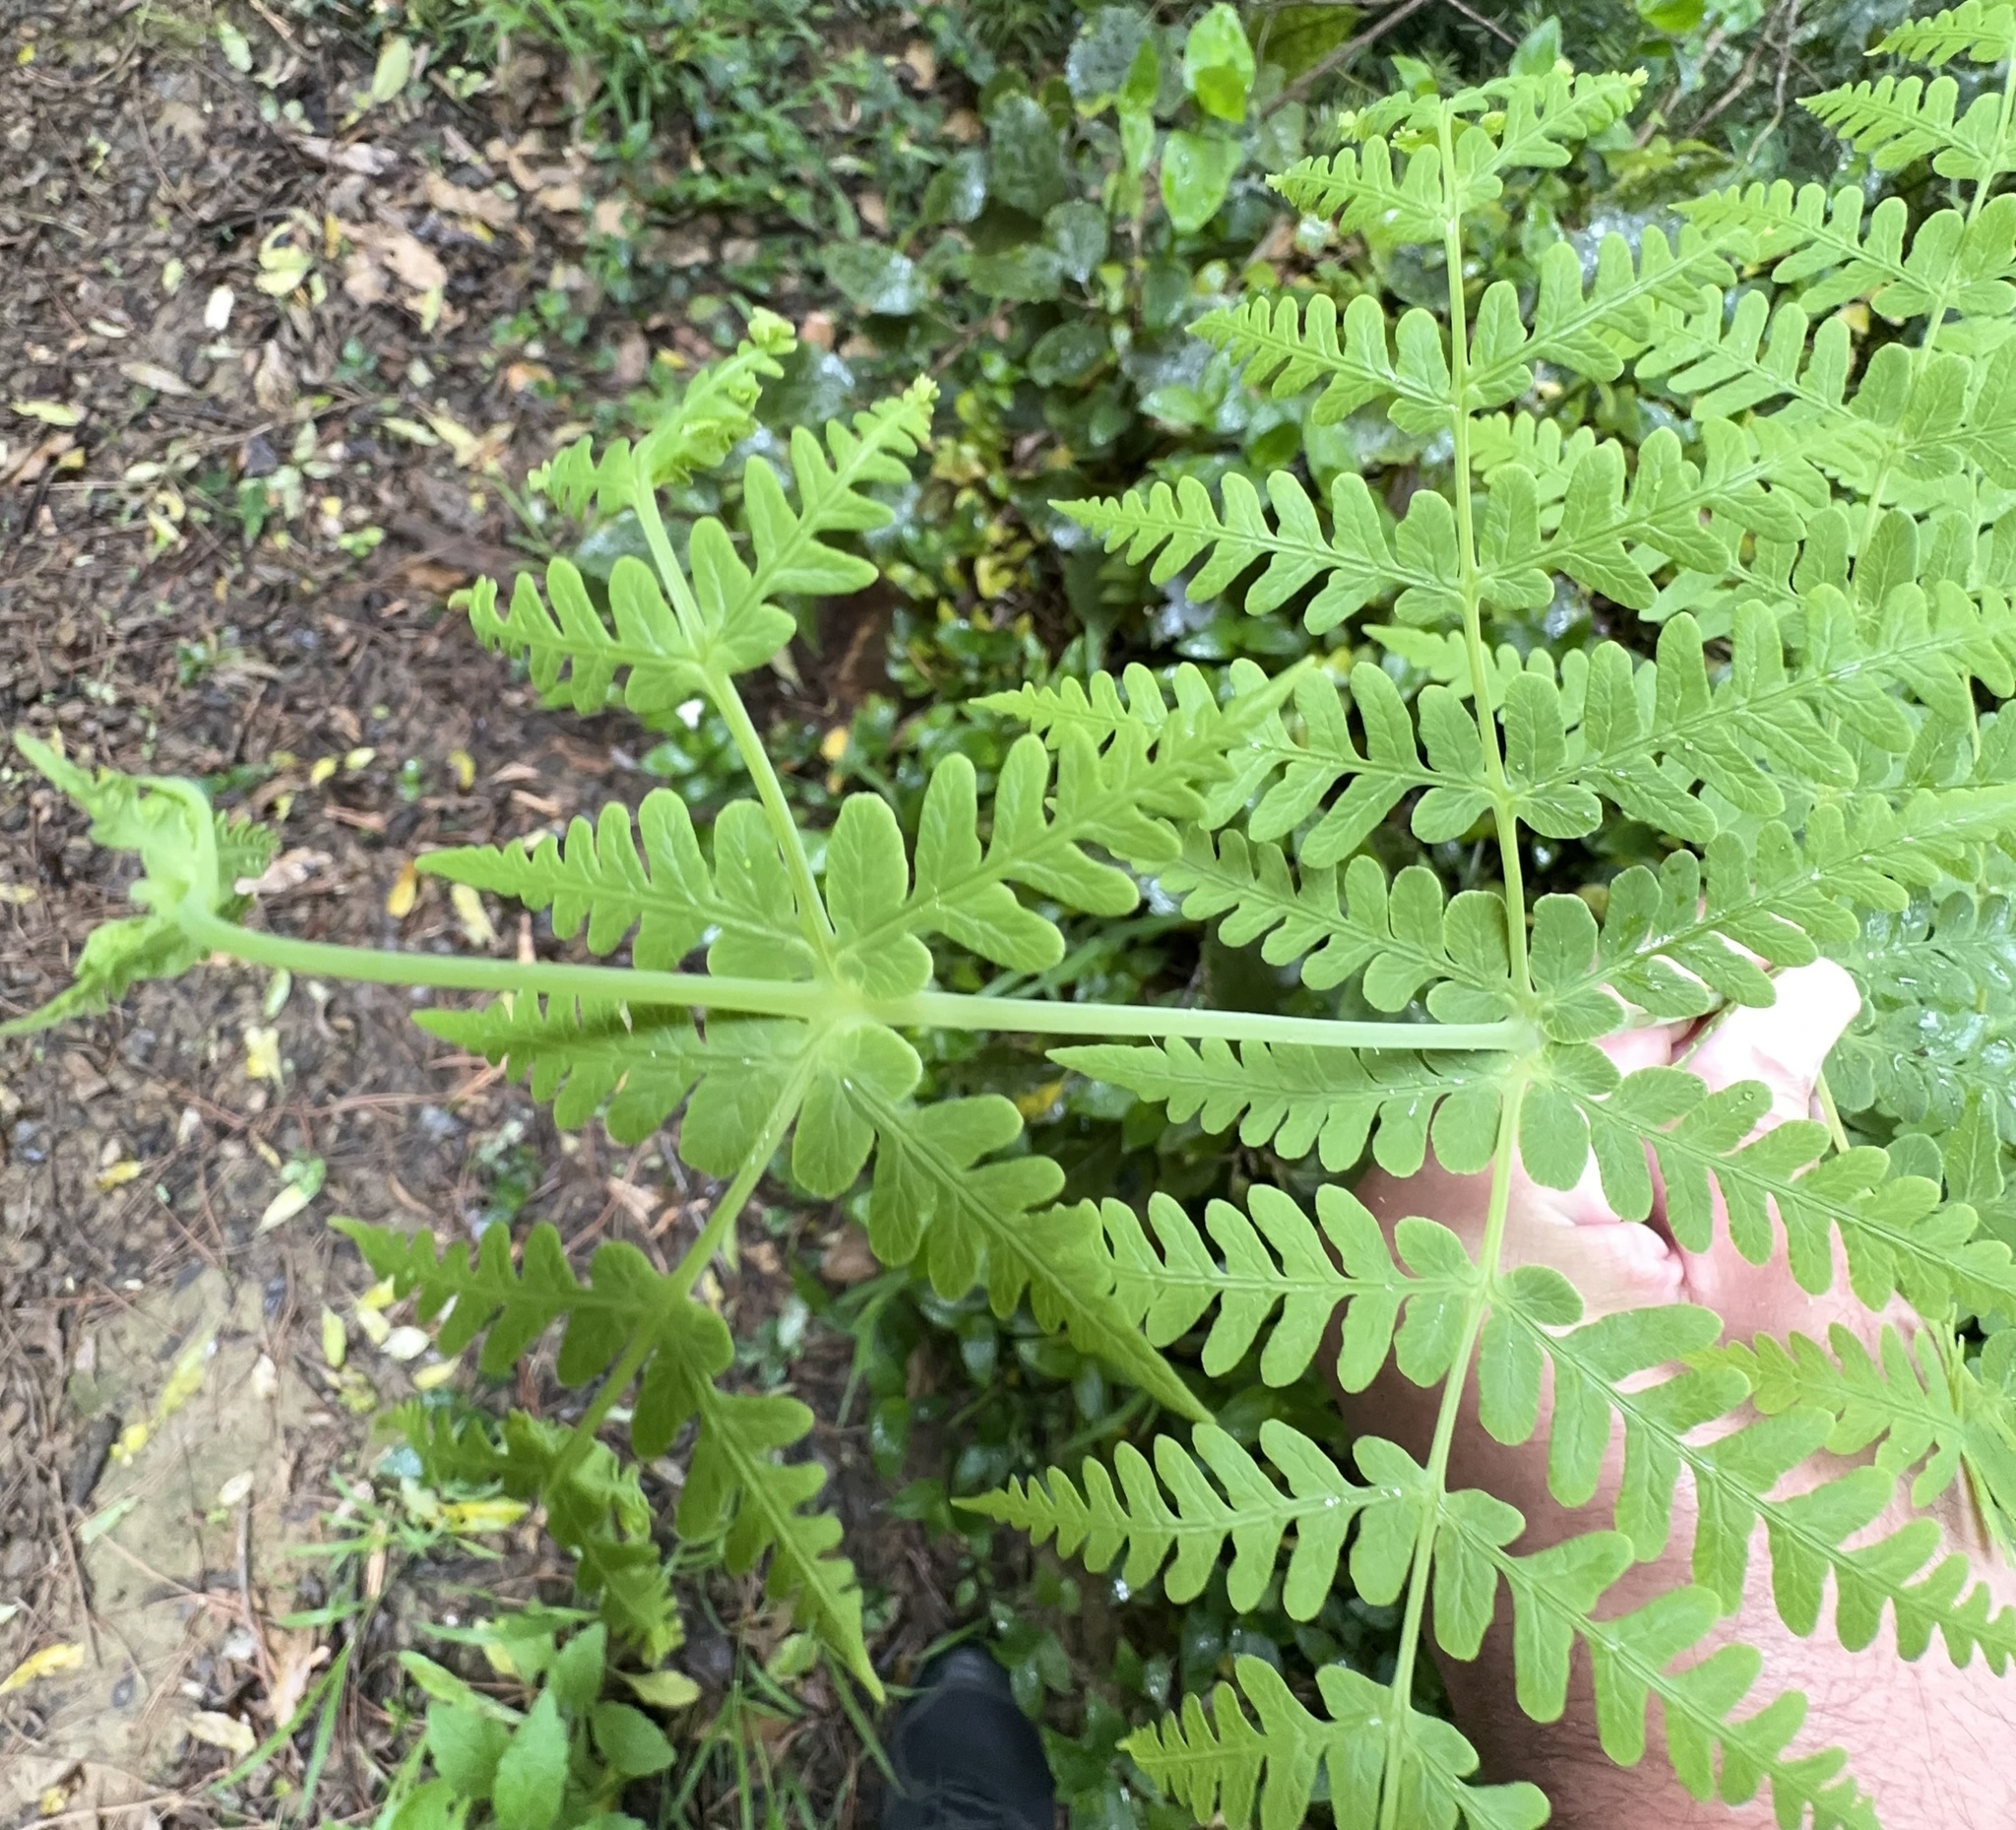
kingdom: Plantae
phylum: Tracheophyta
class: Polypodiopsida
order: Polypodiales
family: Dennstaedtiaceae
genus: Histiopteris
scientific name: Histiopteris incisa
